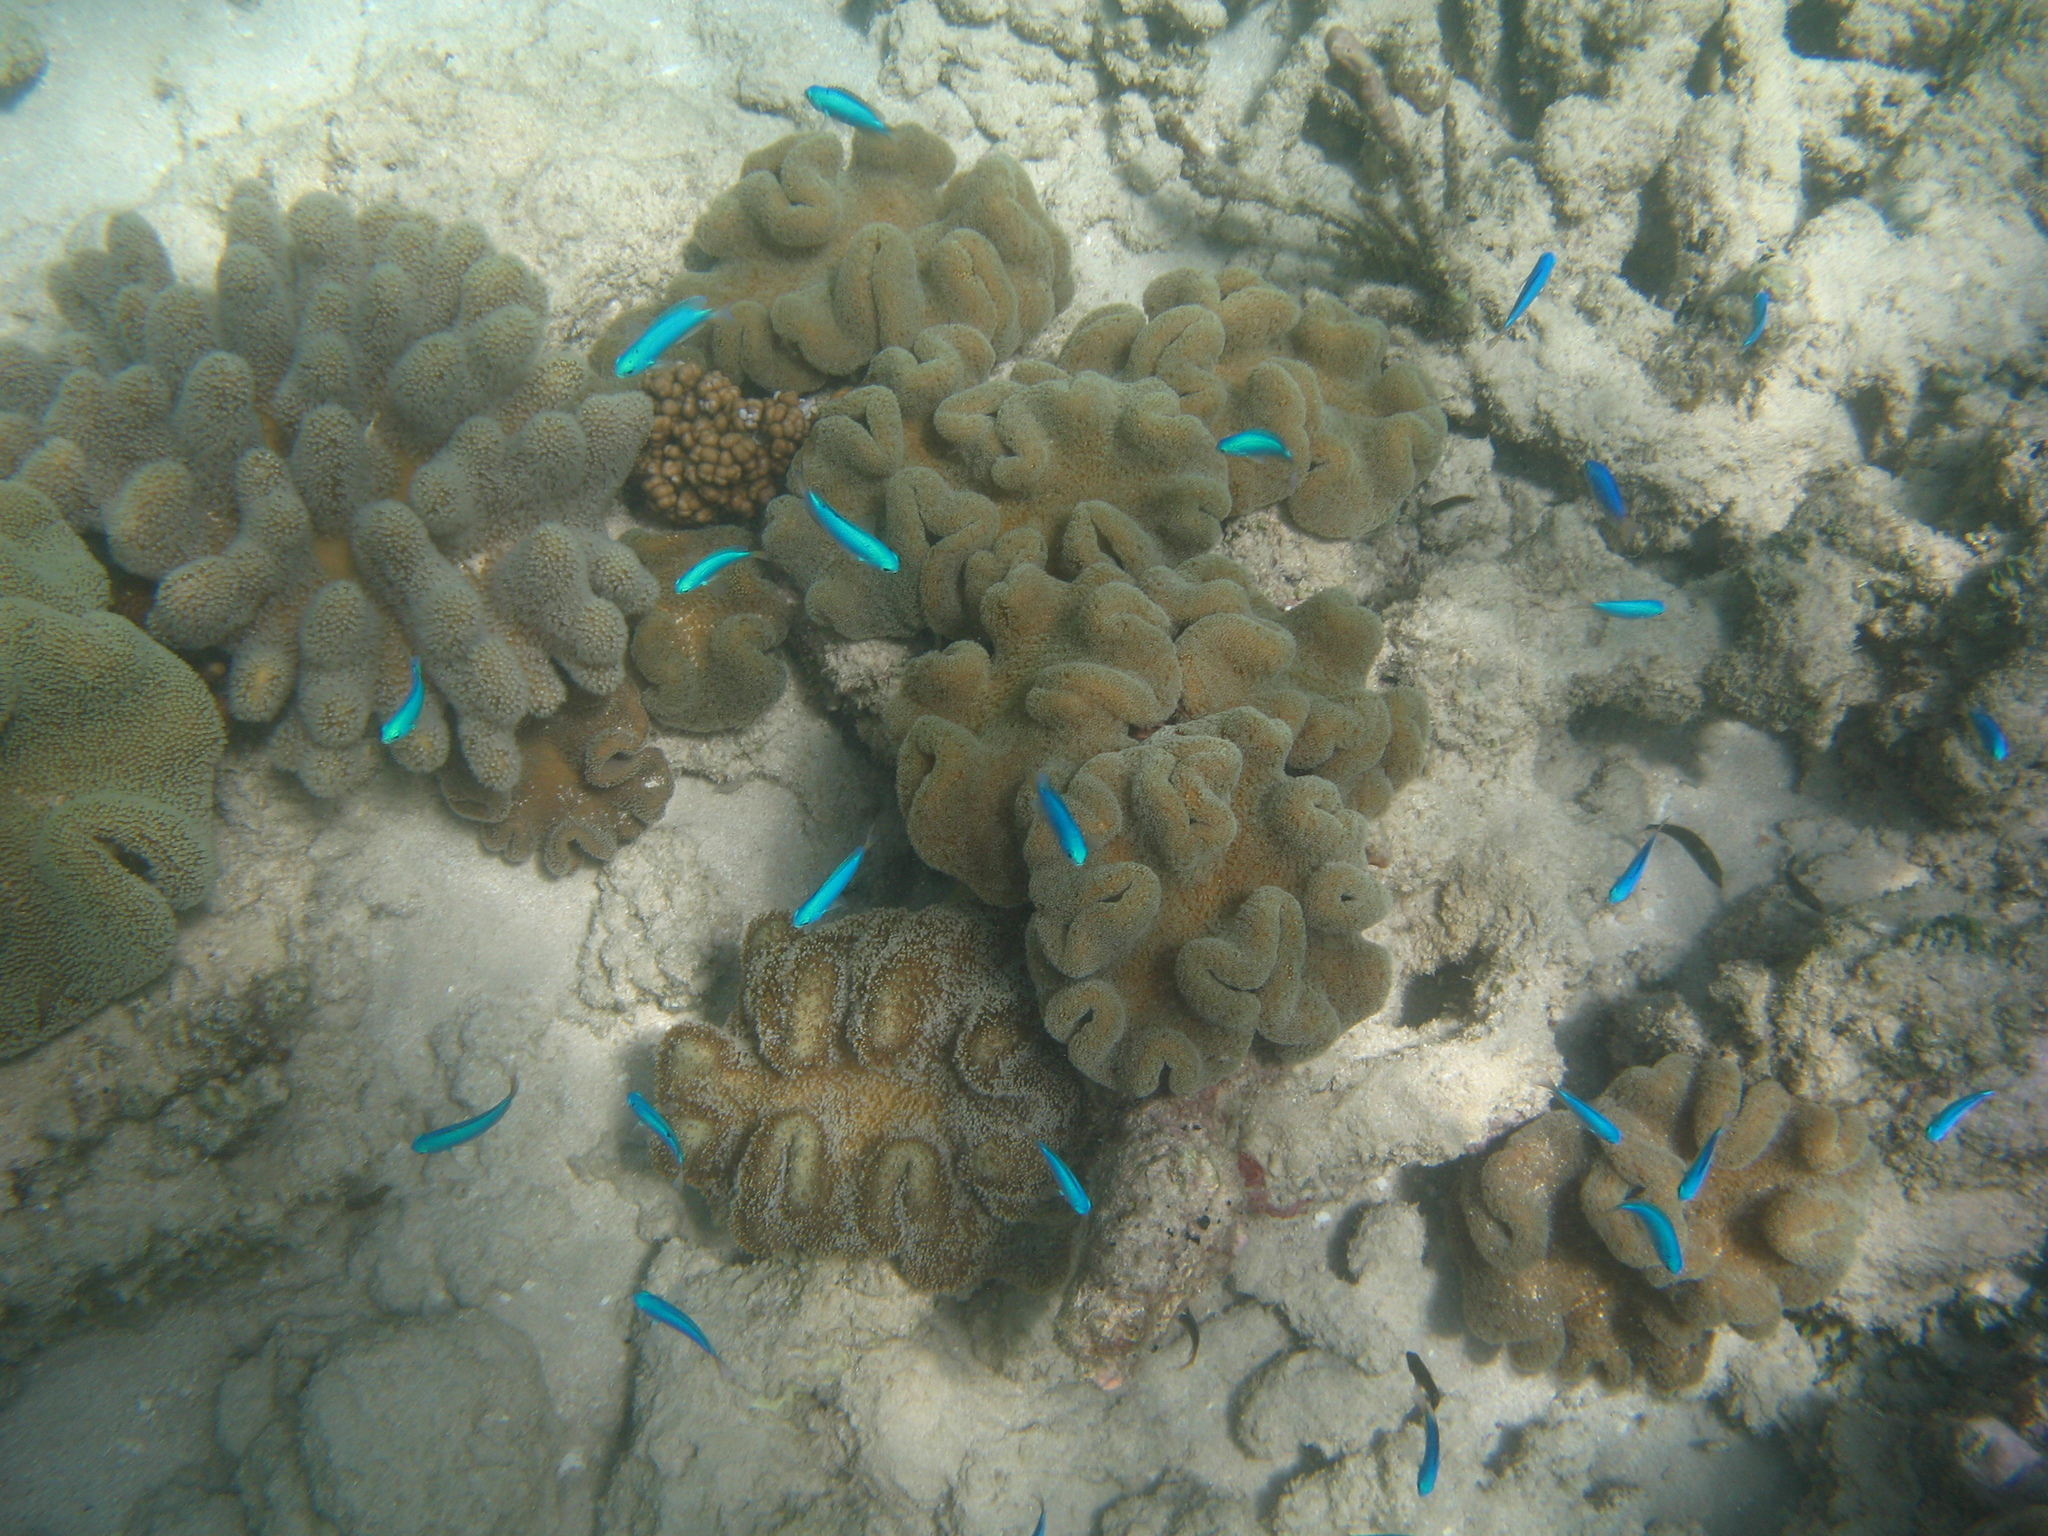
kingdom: Animalia
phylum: Chordata
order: Perciformes
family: Pomacentridae
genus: Pomacentrus
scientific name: Pomacentrus coelestis
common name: Neon damsel
